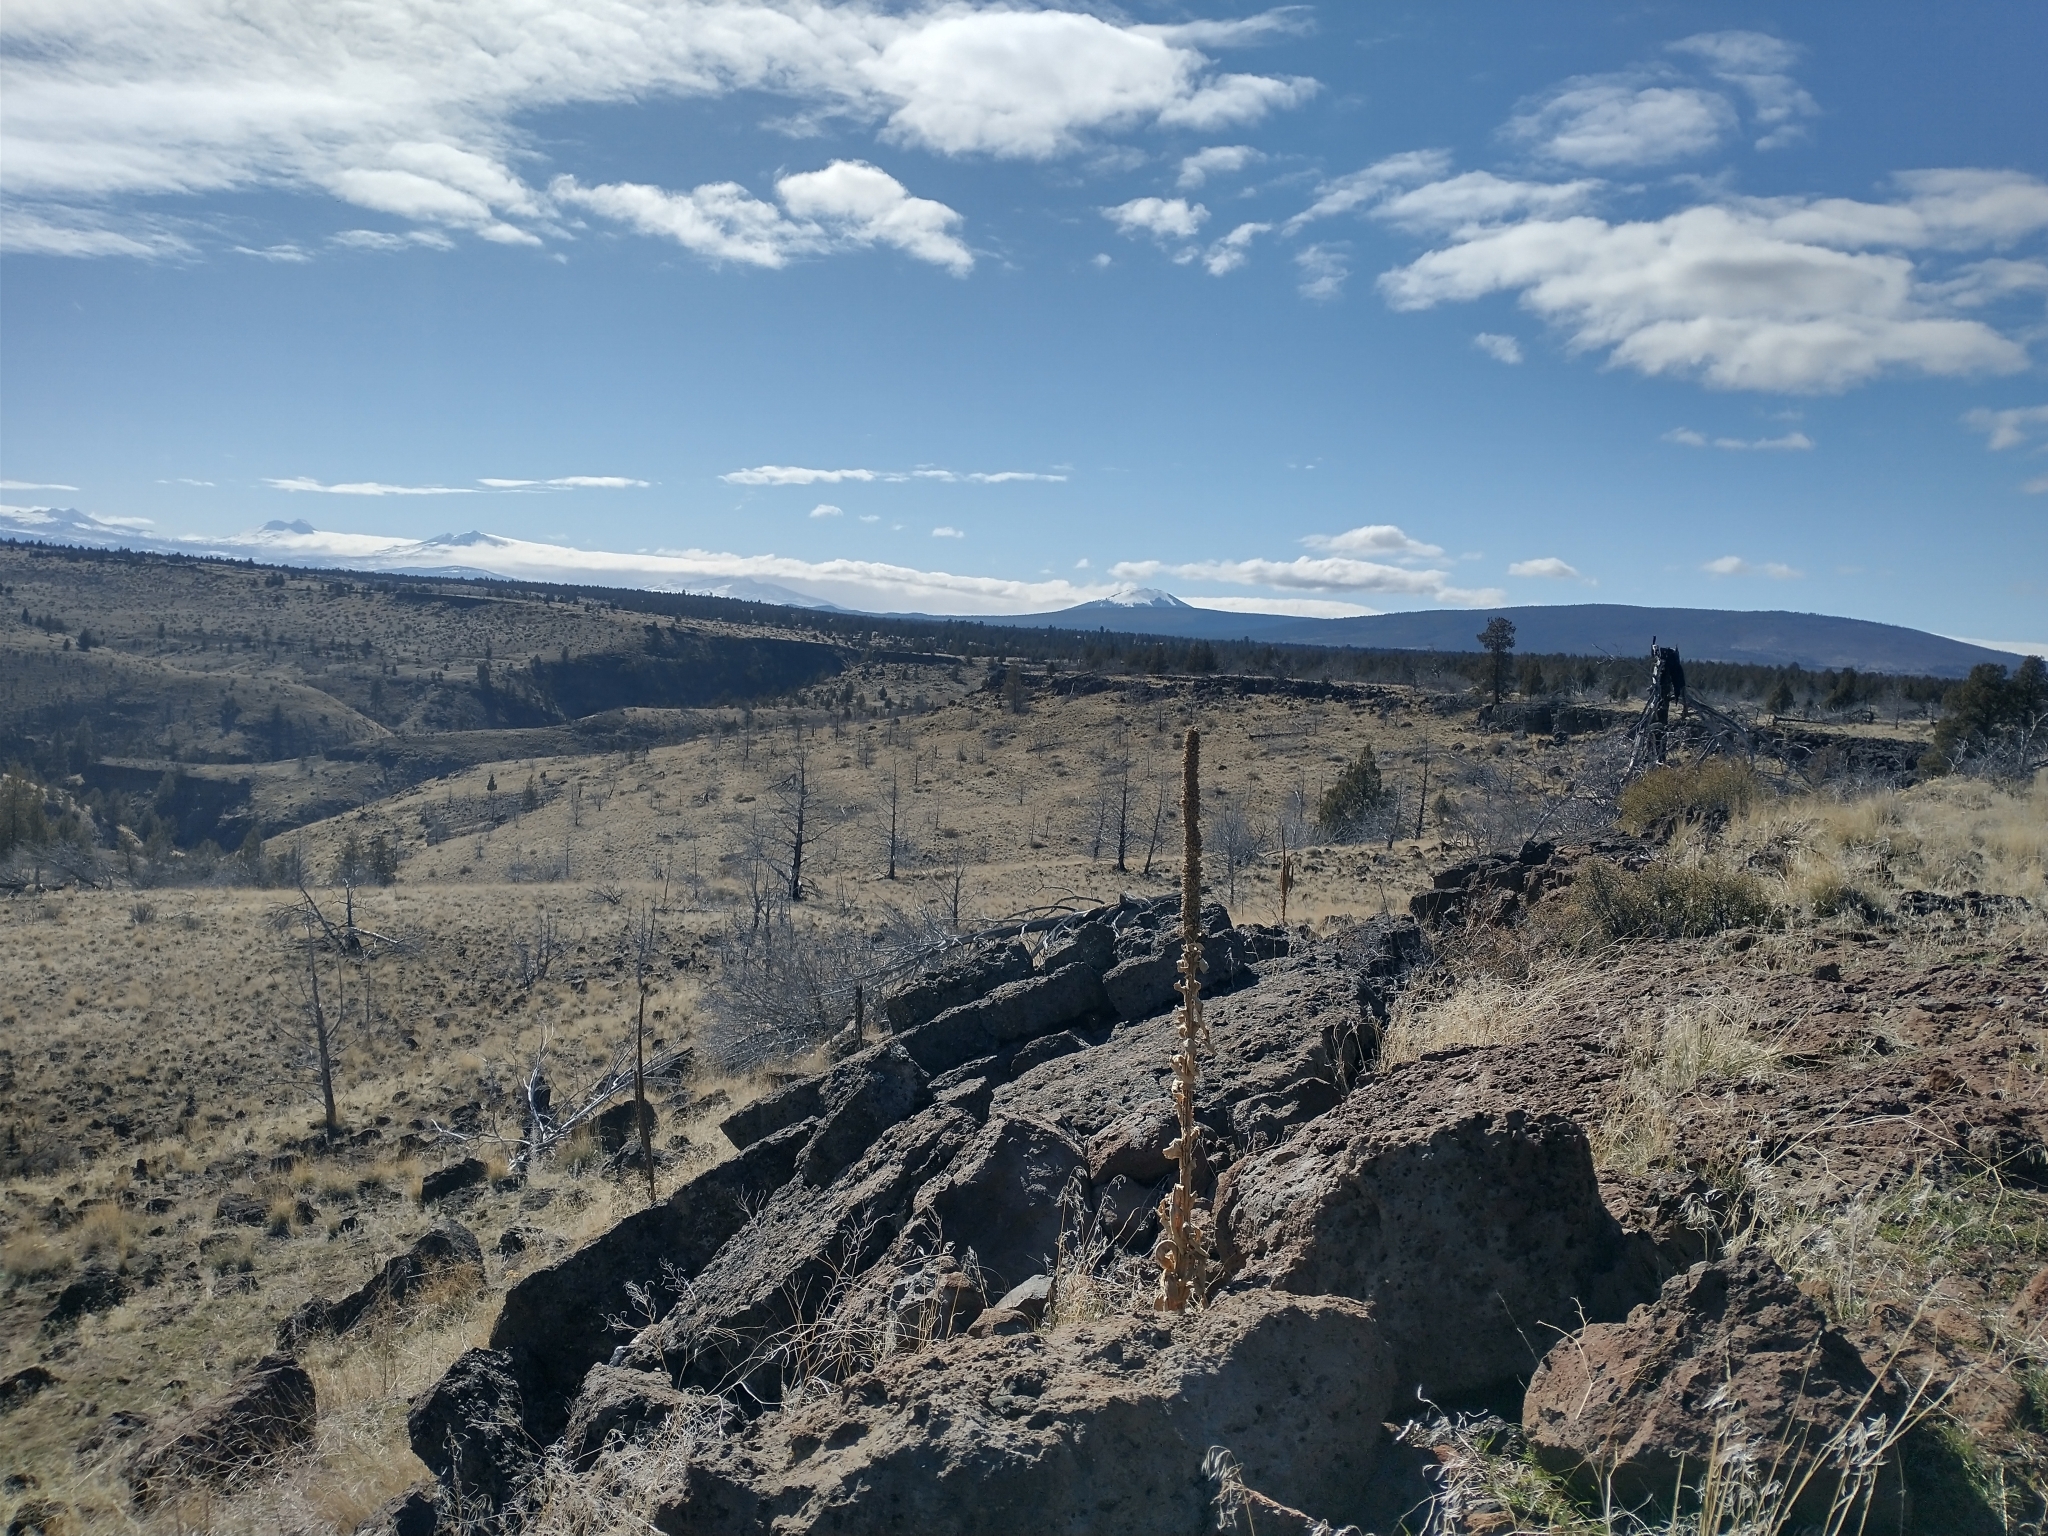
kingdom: Plantae
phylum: Tracheophyta
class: Magnoliopsida
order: Lamiales
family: Scrophulariaceae
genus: Verbascum
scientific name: Verbascum thapsus
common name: Common mullein
